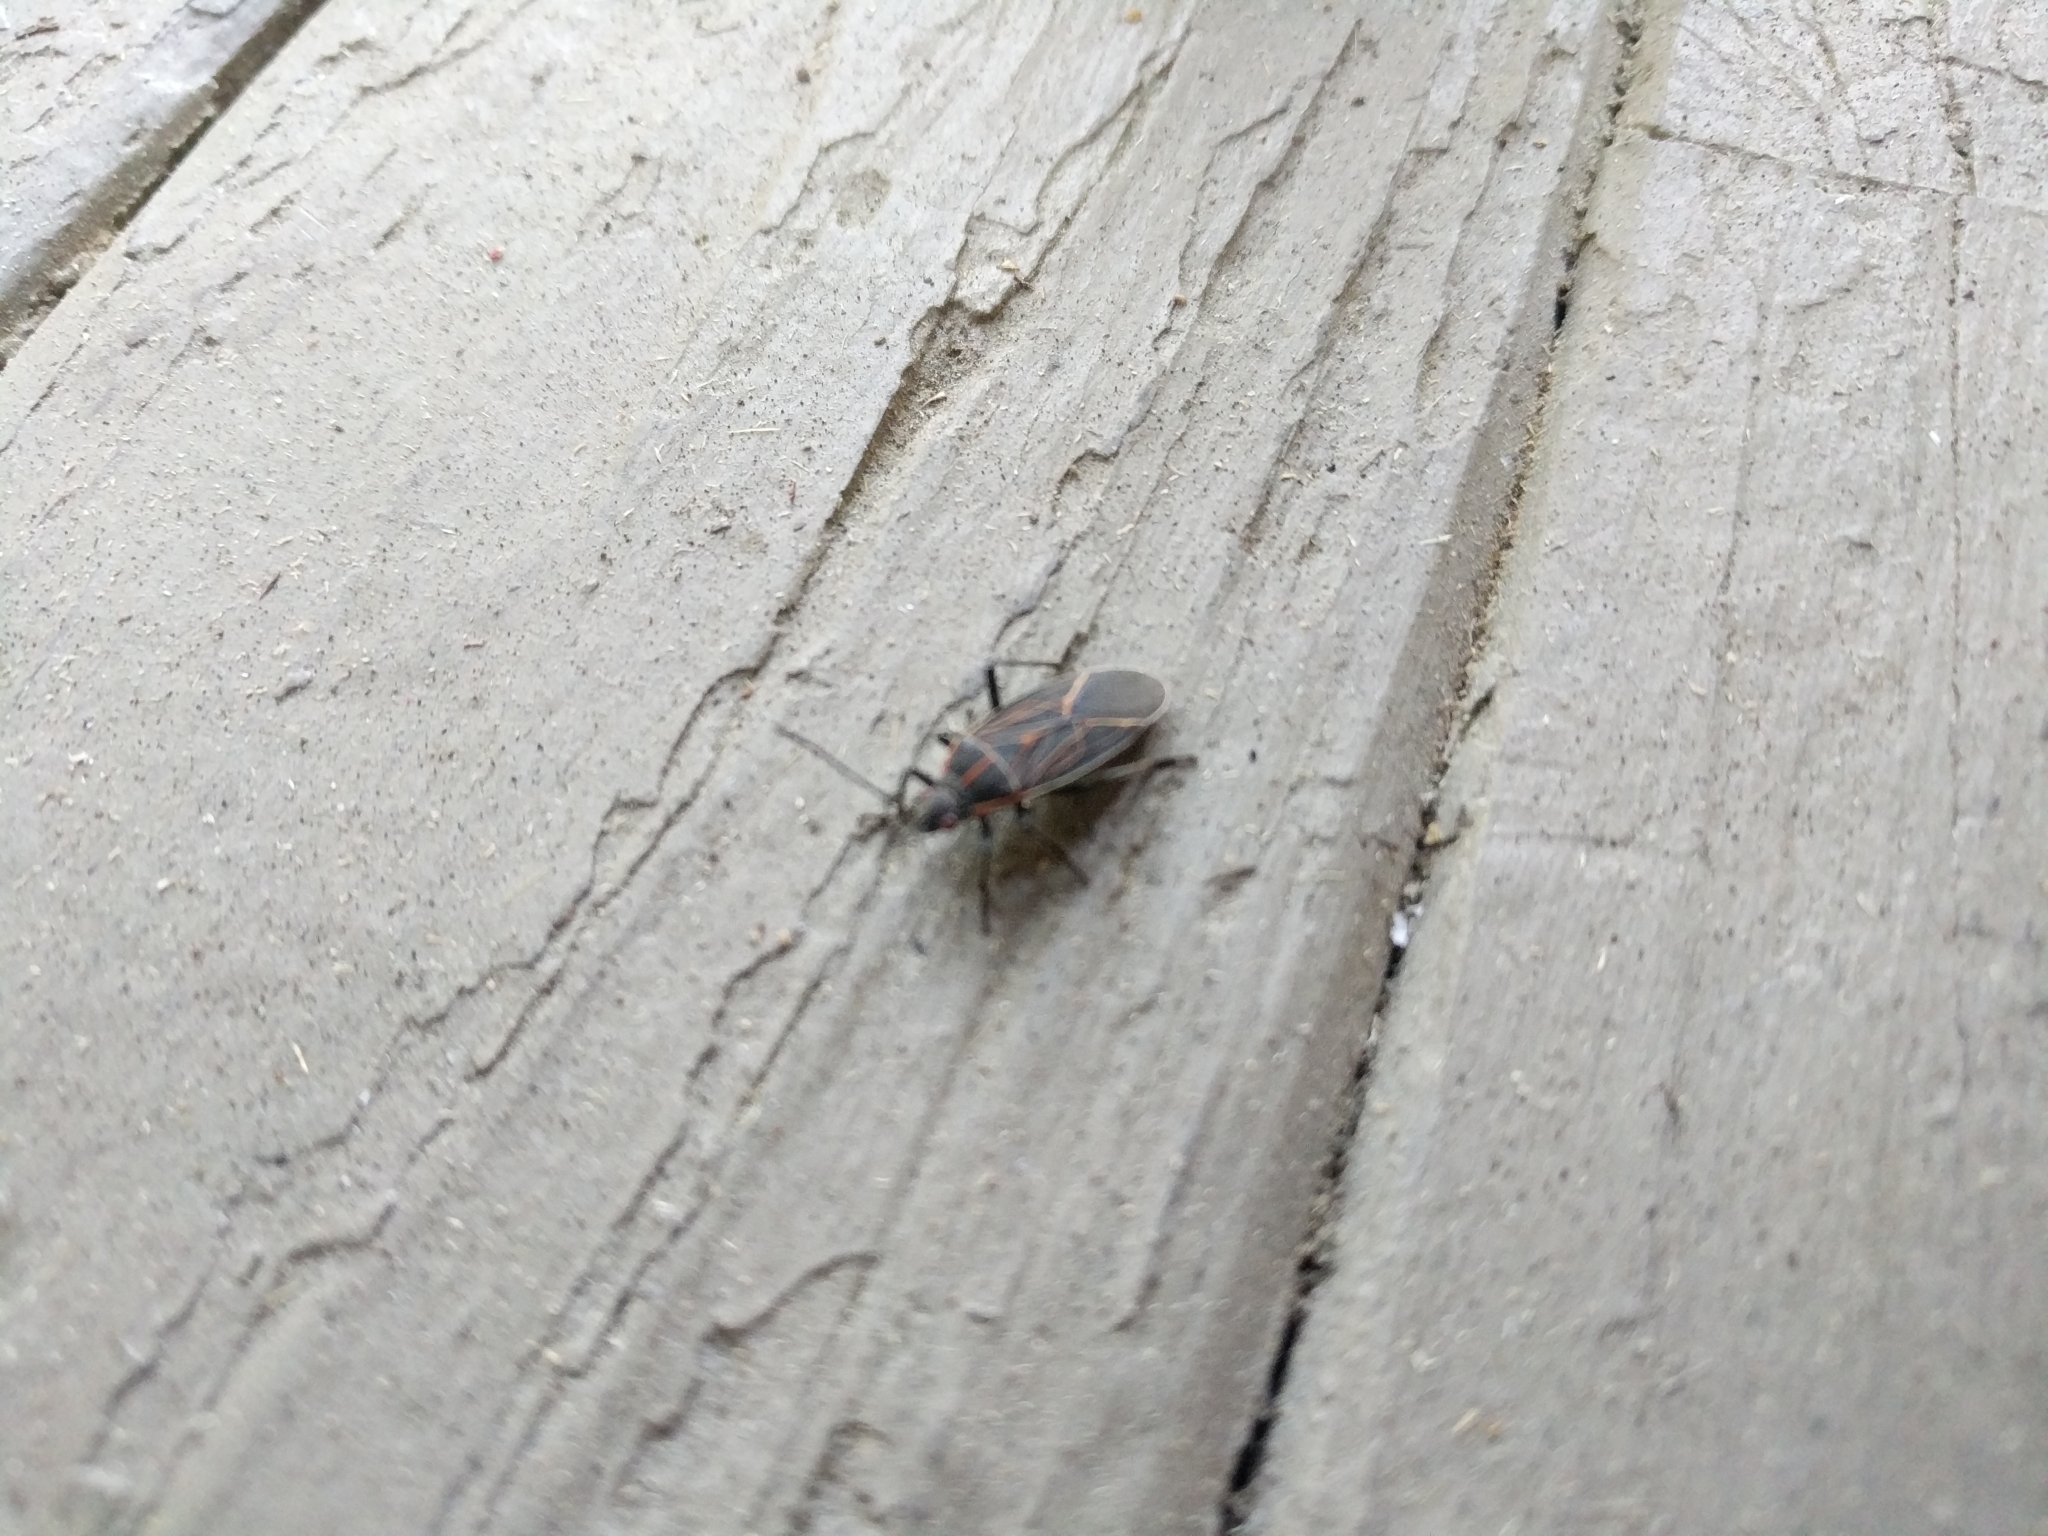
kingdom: Animalia
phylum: Arthropoda
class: Insecta
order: Hemiptera
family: Rhopalidae
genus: Boisea
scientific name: Boisea rubrolineata
